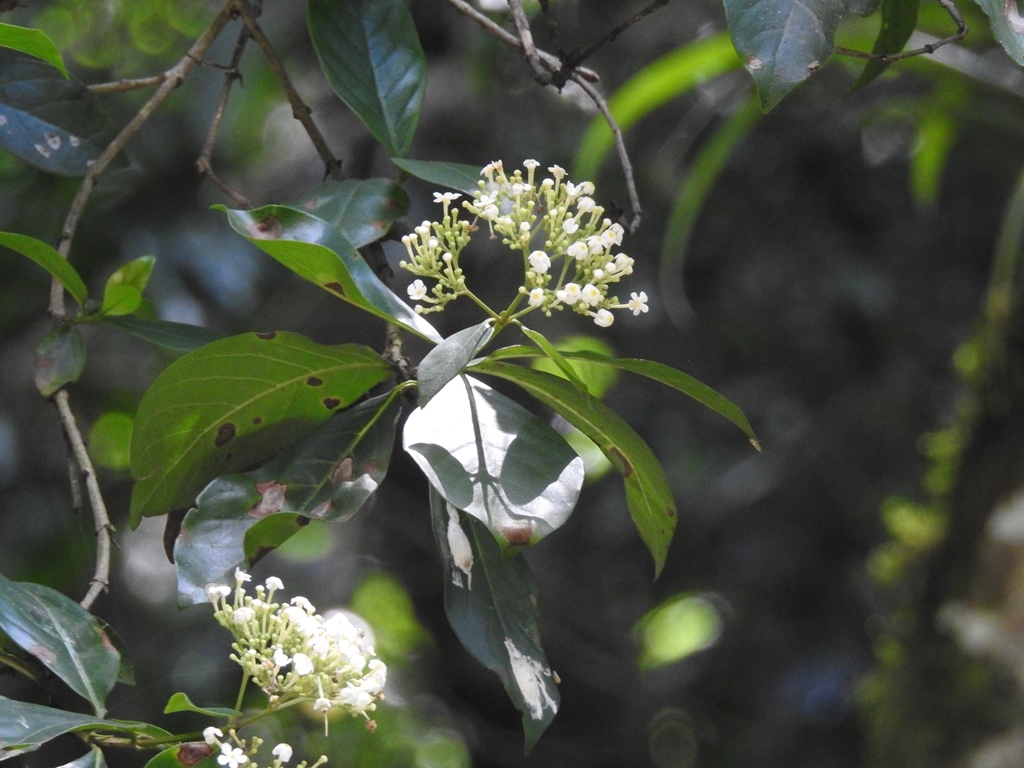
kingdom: Plantae
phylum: Tracheophyta
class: Magnoliopsida
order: Gentianales
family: Rubiaceae
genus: Rogiera
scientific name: Rogiera stenosiphon
